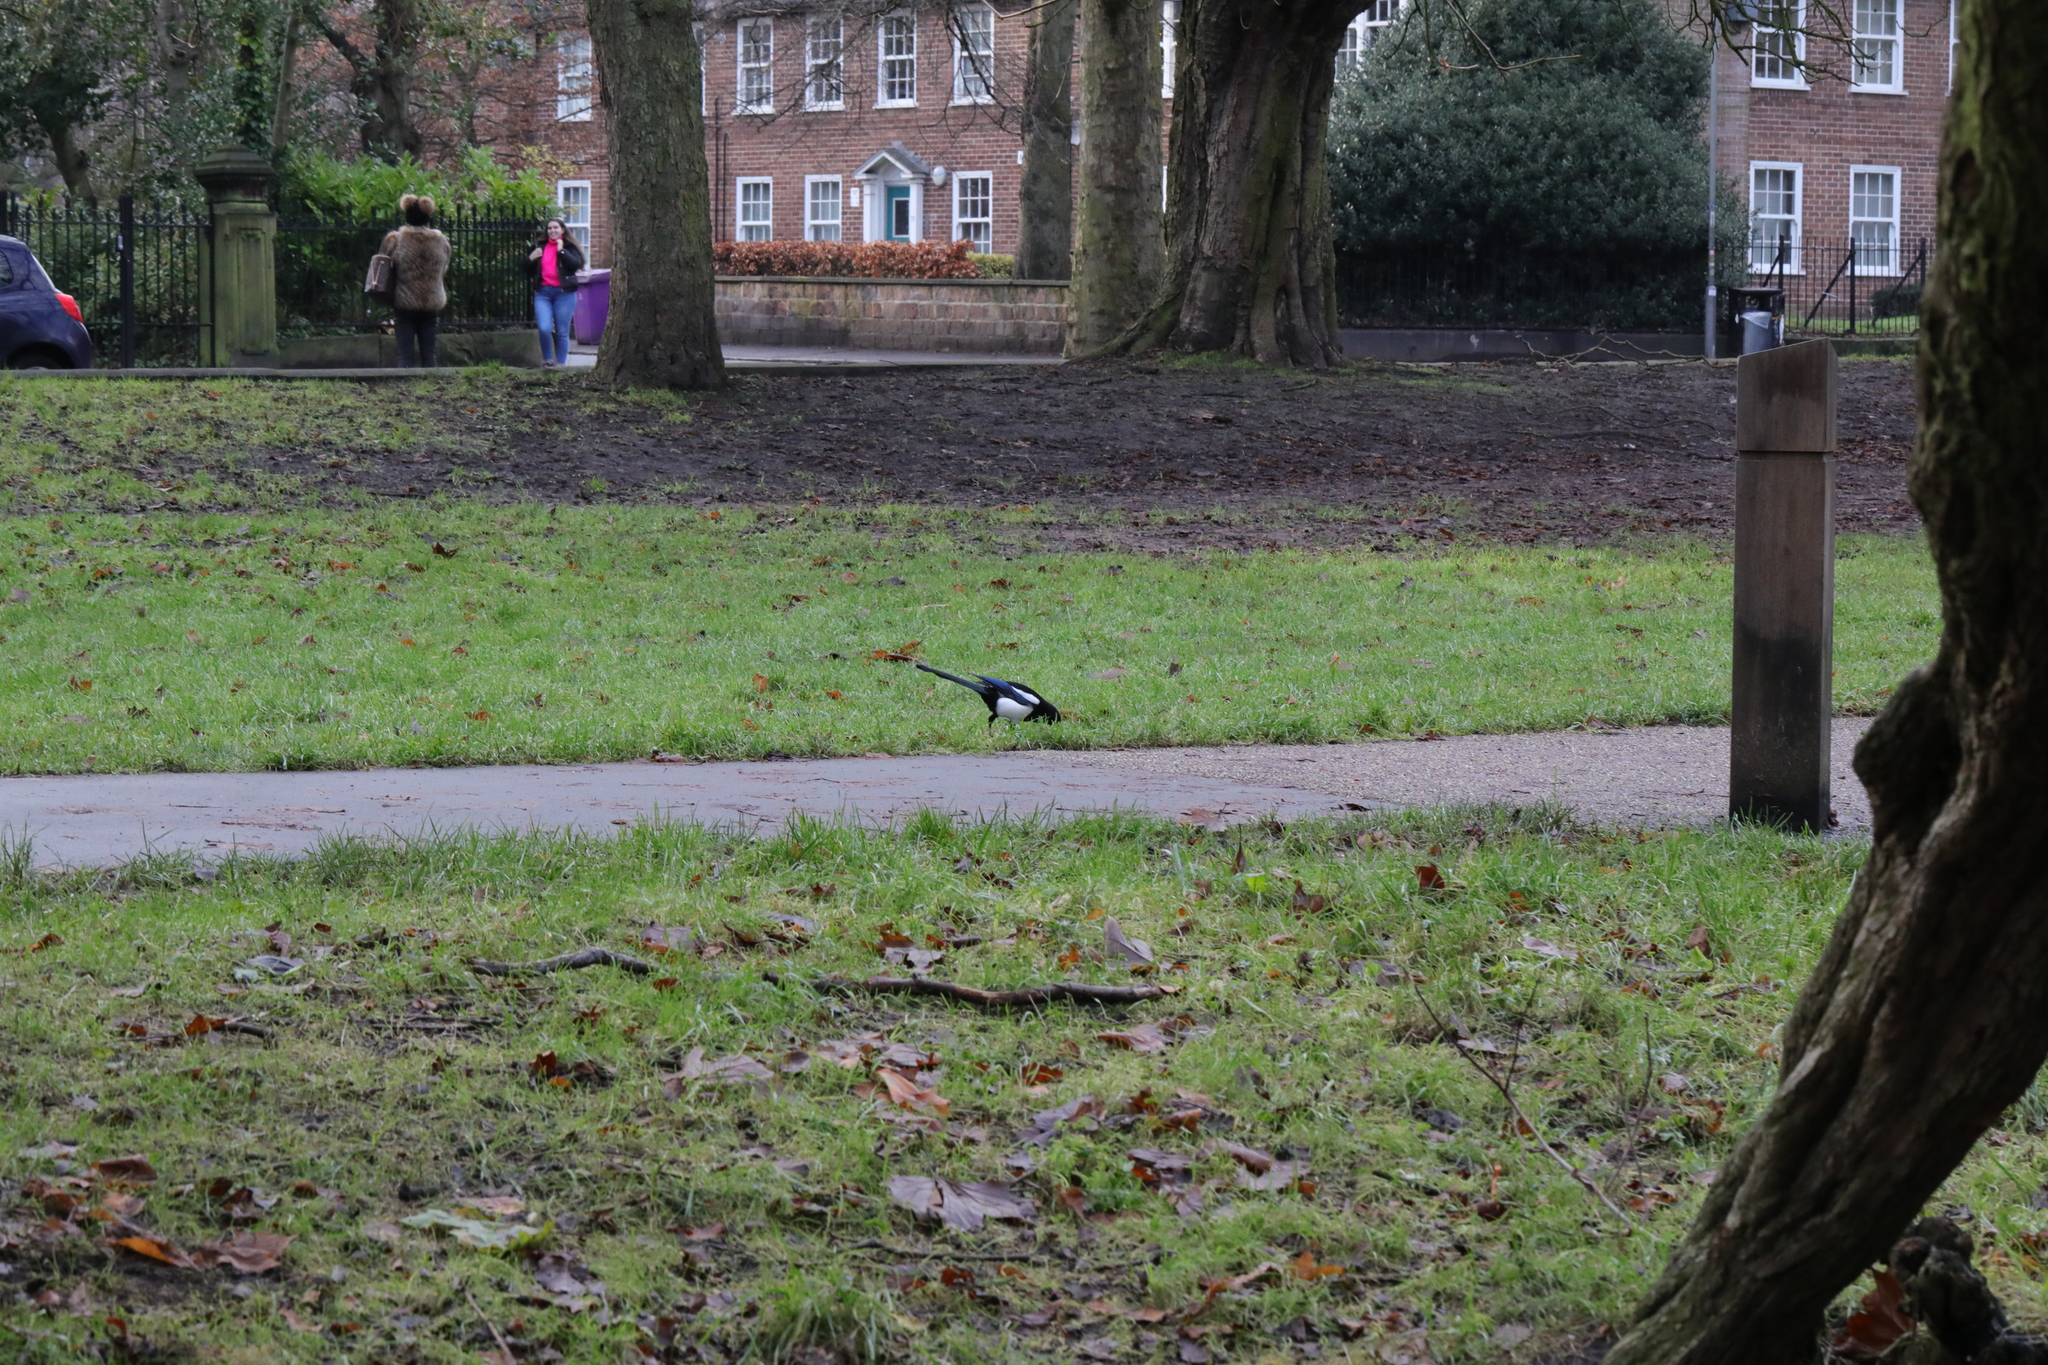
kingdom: Animalia
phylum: Chordata
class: Aves
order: Passeriformes
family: Corvidae
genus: Pica
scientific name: Pica pica
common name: Eurasian magpie
